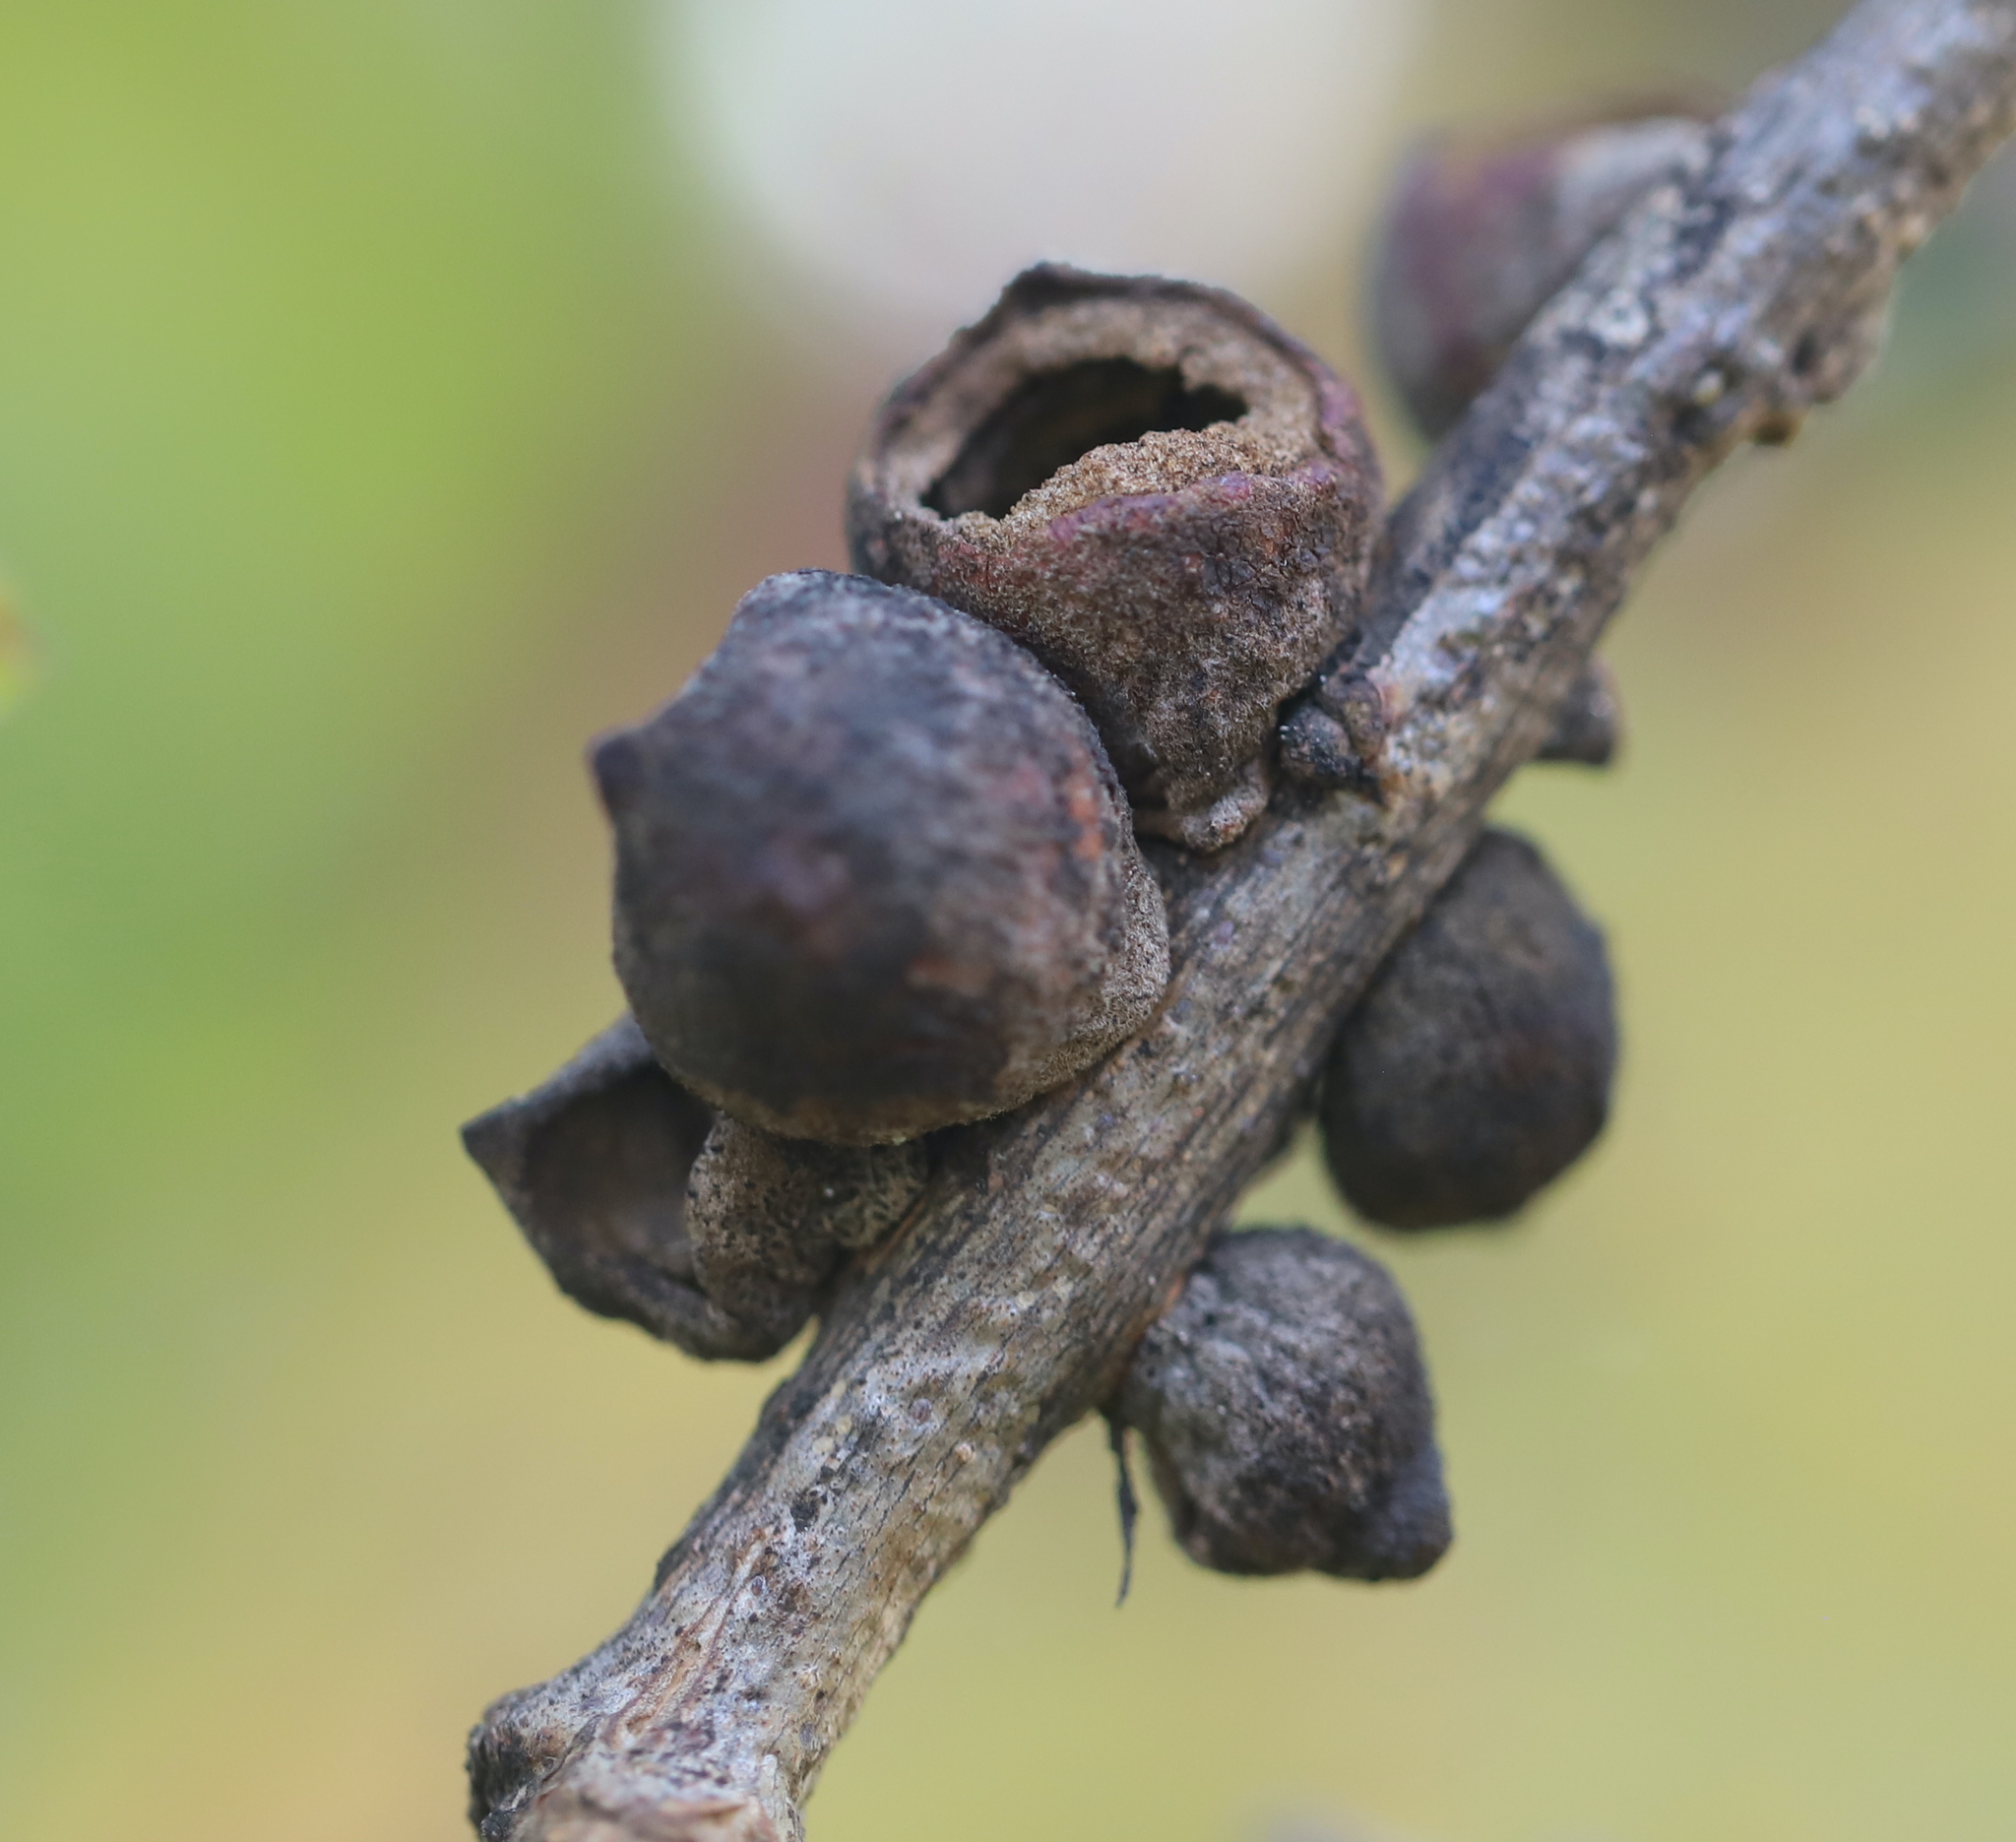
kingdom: Animalia
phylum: Arthropoda
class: Insecta
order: Hymenoptera
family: Cynipidae
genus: Disholcaspis
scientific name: Disholcaspis
